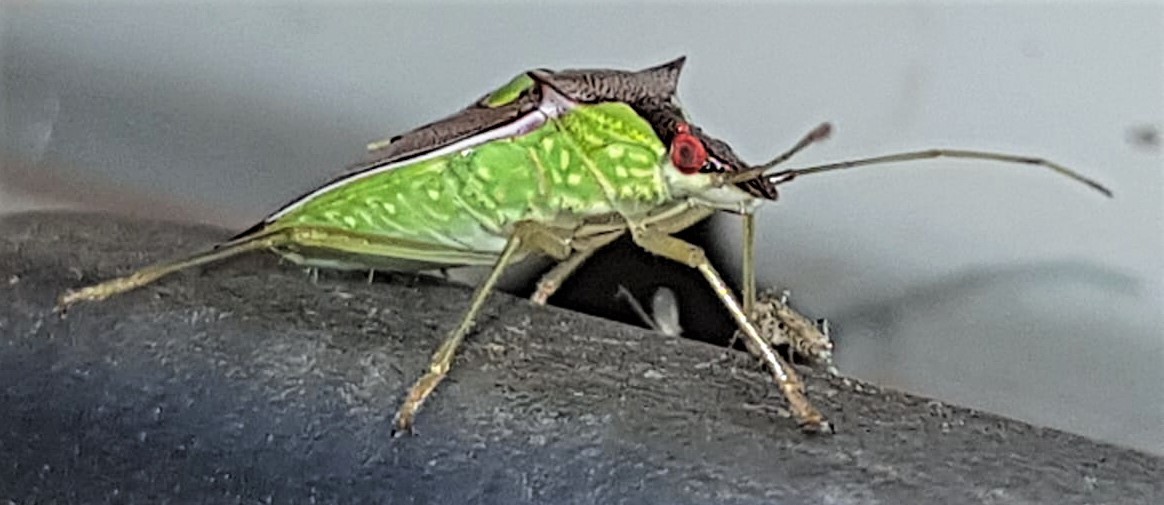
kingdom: Animalia
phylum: Arthropoda
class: Insecta
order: Hemiptera
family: Pentatomidae
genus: Rhyncholepta
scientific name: Rhyncholepta grandicallosa
